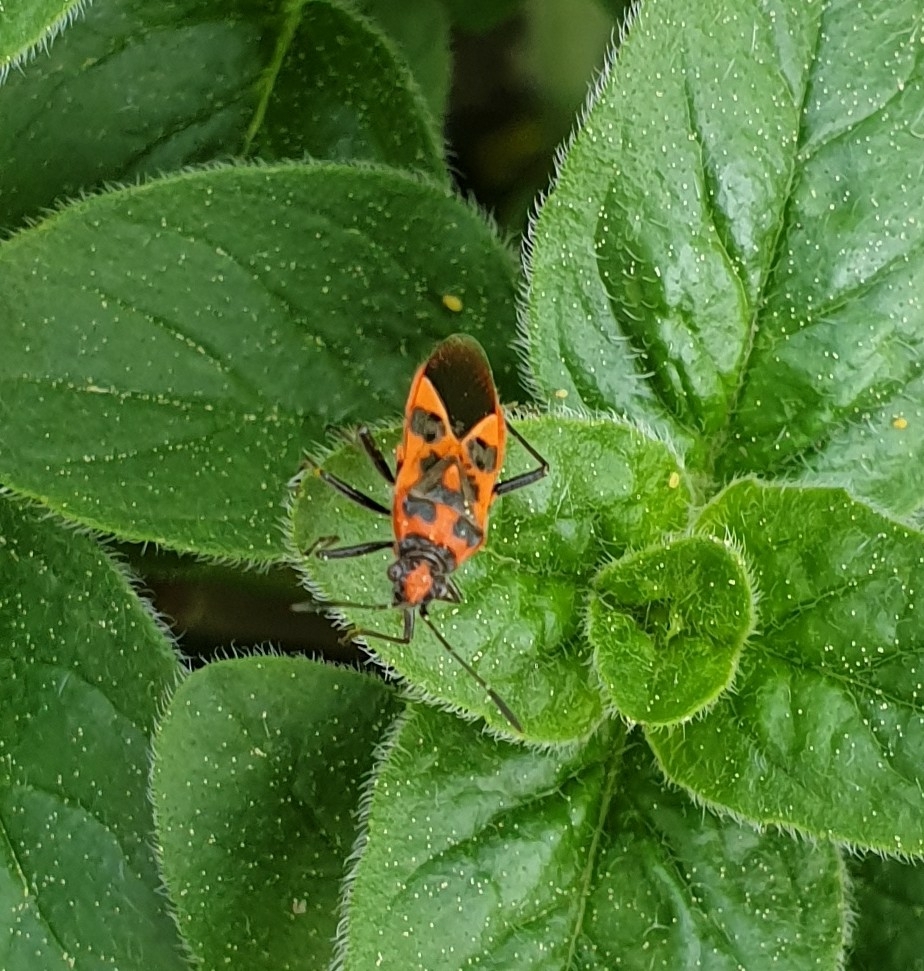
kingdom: Animalia
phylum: Arthropoda
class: Insecta
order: Hemiptera
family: Rhopalidae
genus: Corizus
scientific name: Corizus hyoscyami
